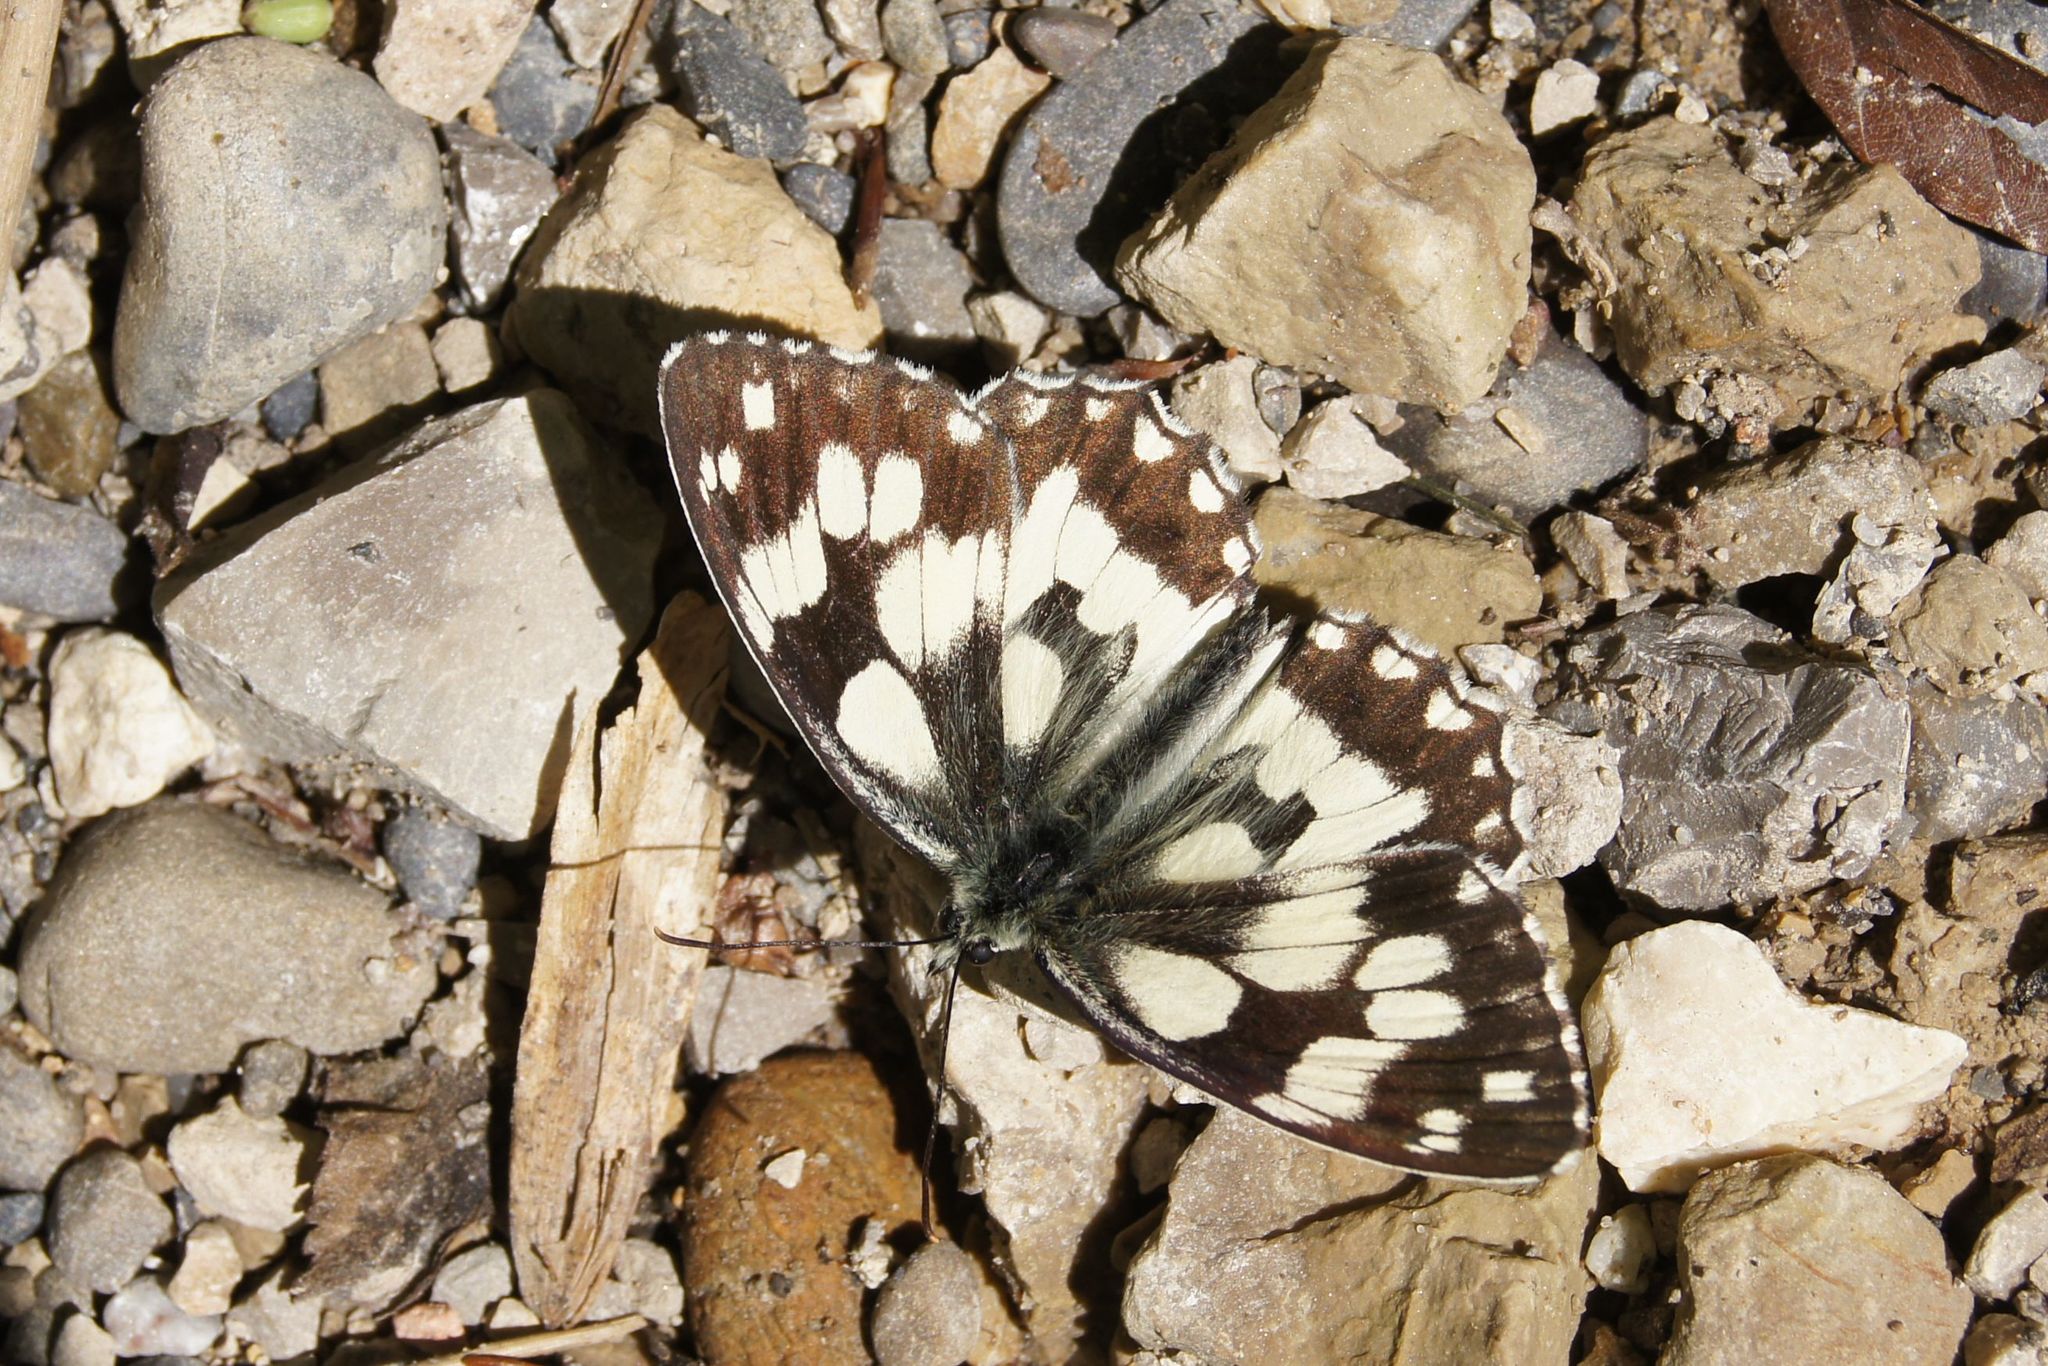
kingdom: Animalia
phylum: Arthropoda
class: Insecta
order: Lepidoptera
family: Nymphalidae
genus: Melanargia
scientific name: Melanargia galathea
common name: Marbled white
